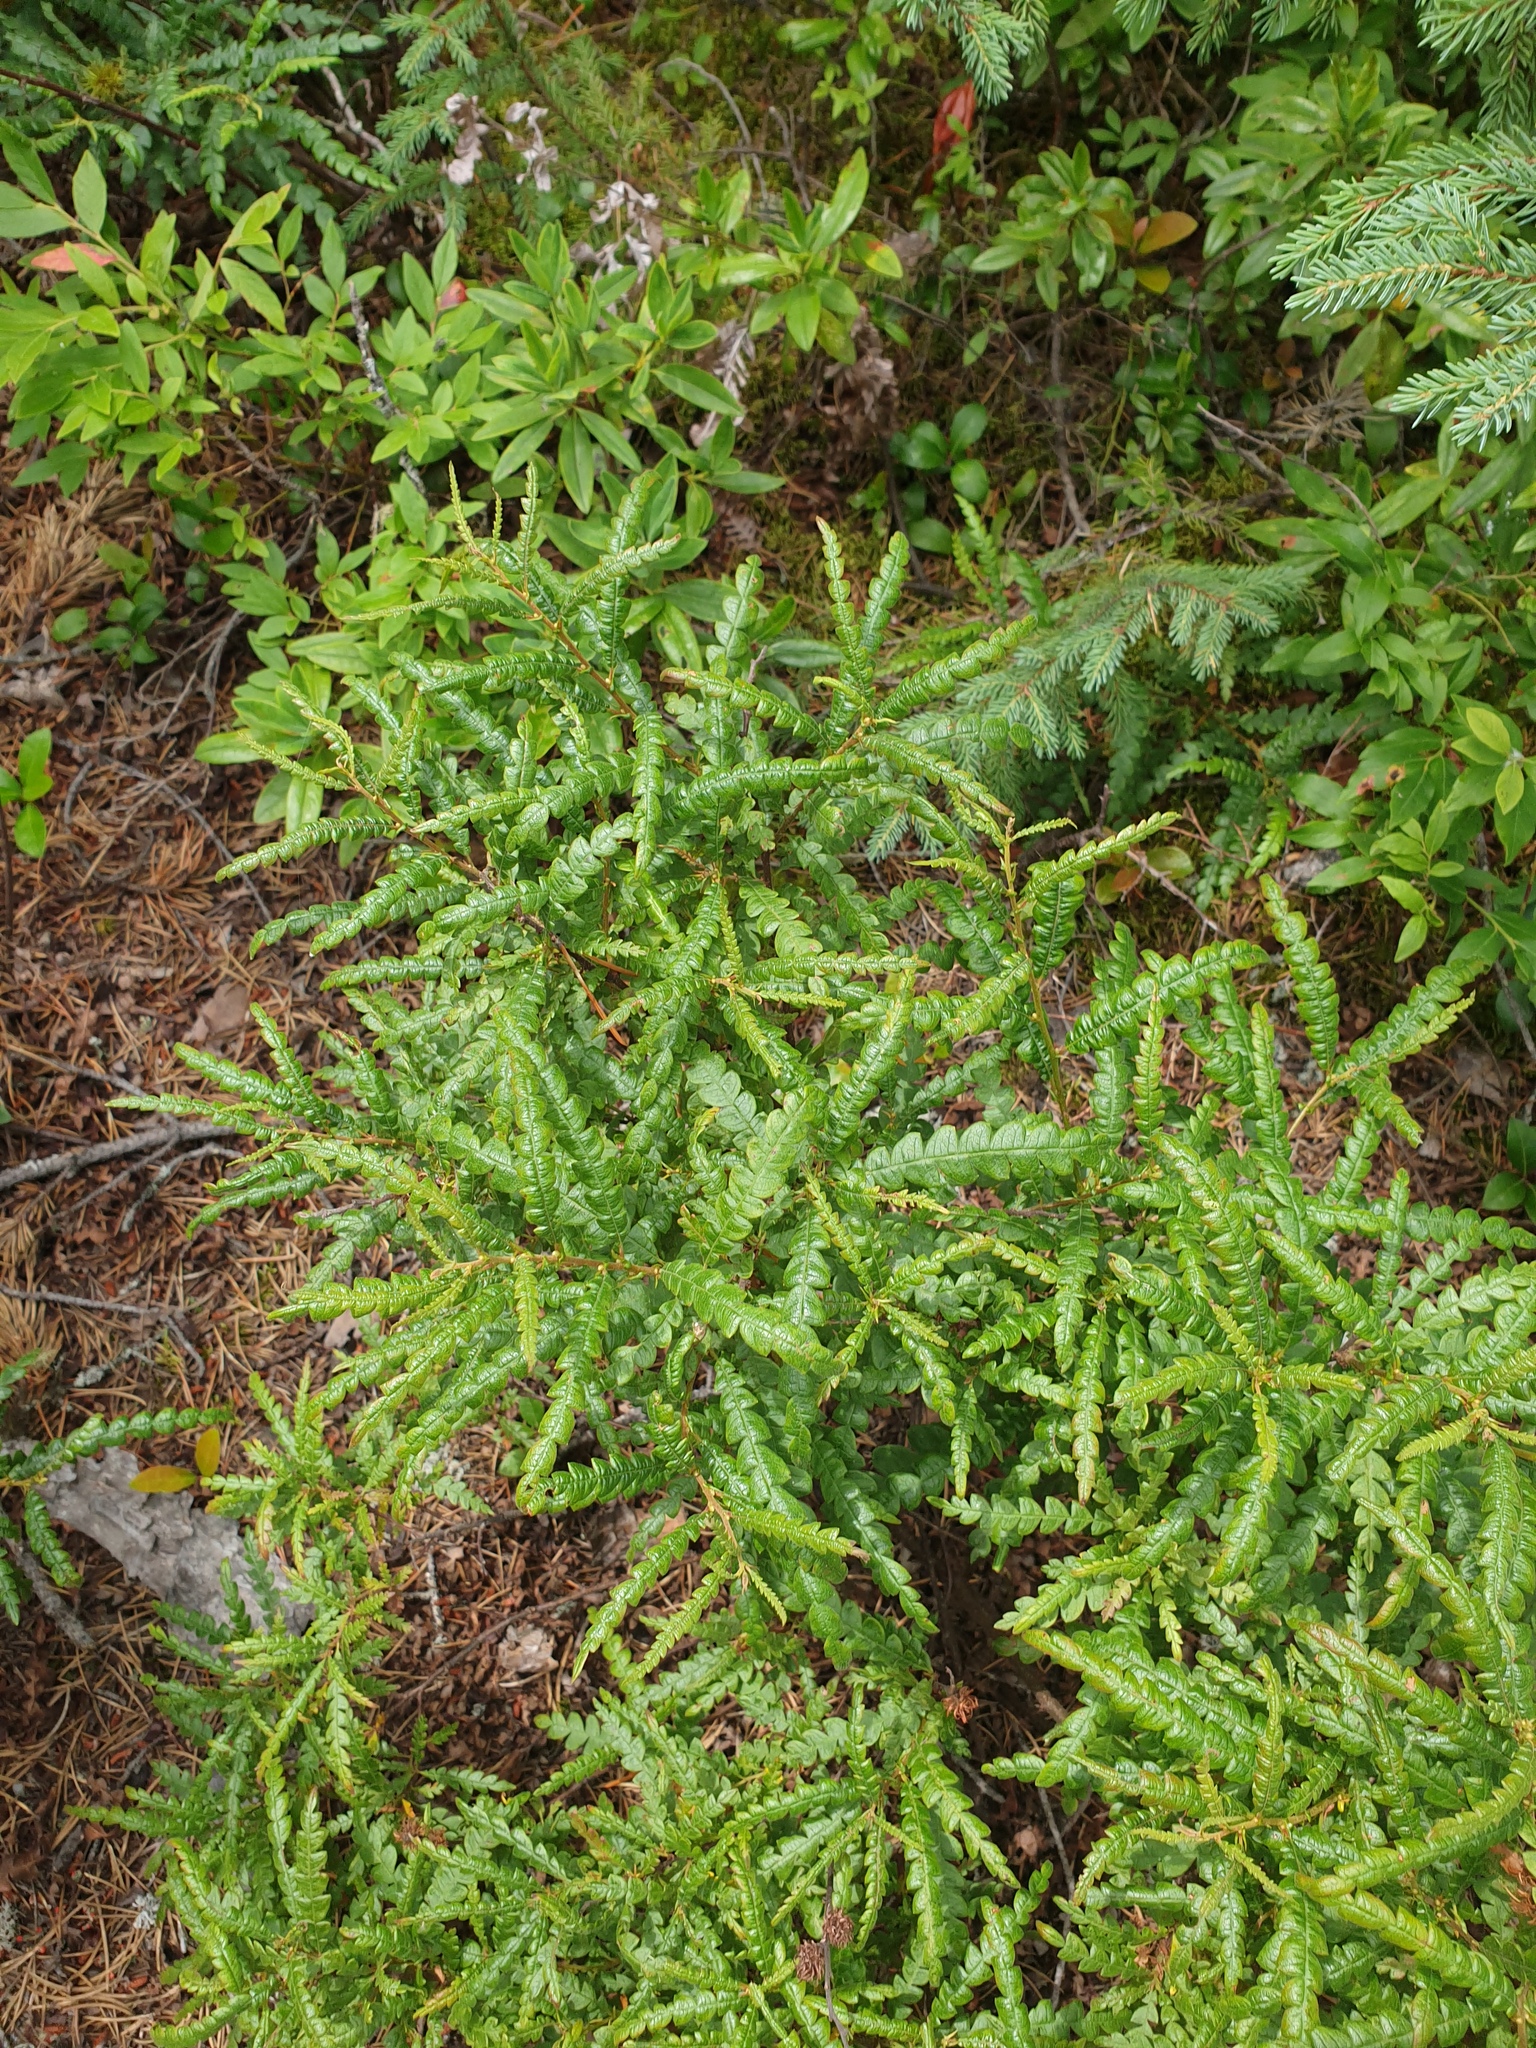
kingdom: Plantae
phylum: Tracheophyta
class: Magnoliopsida
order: Fagales
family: Myricaceae
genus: Comptonia
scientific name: Comptonia peregrina
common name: Sweet-fern
